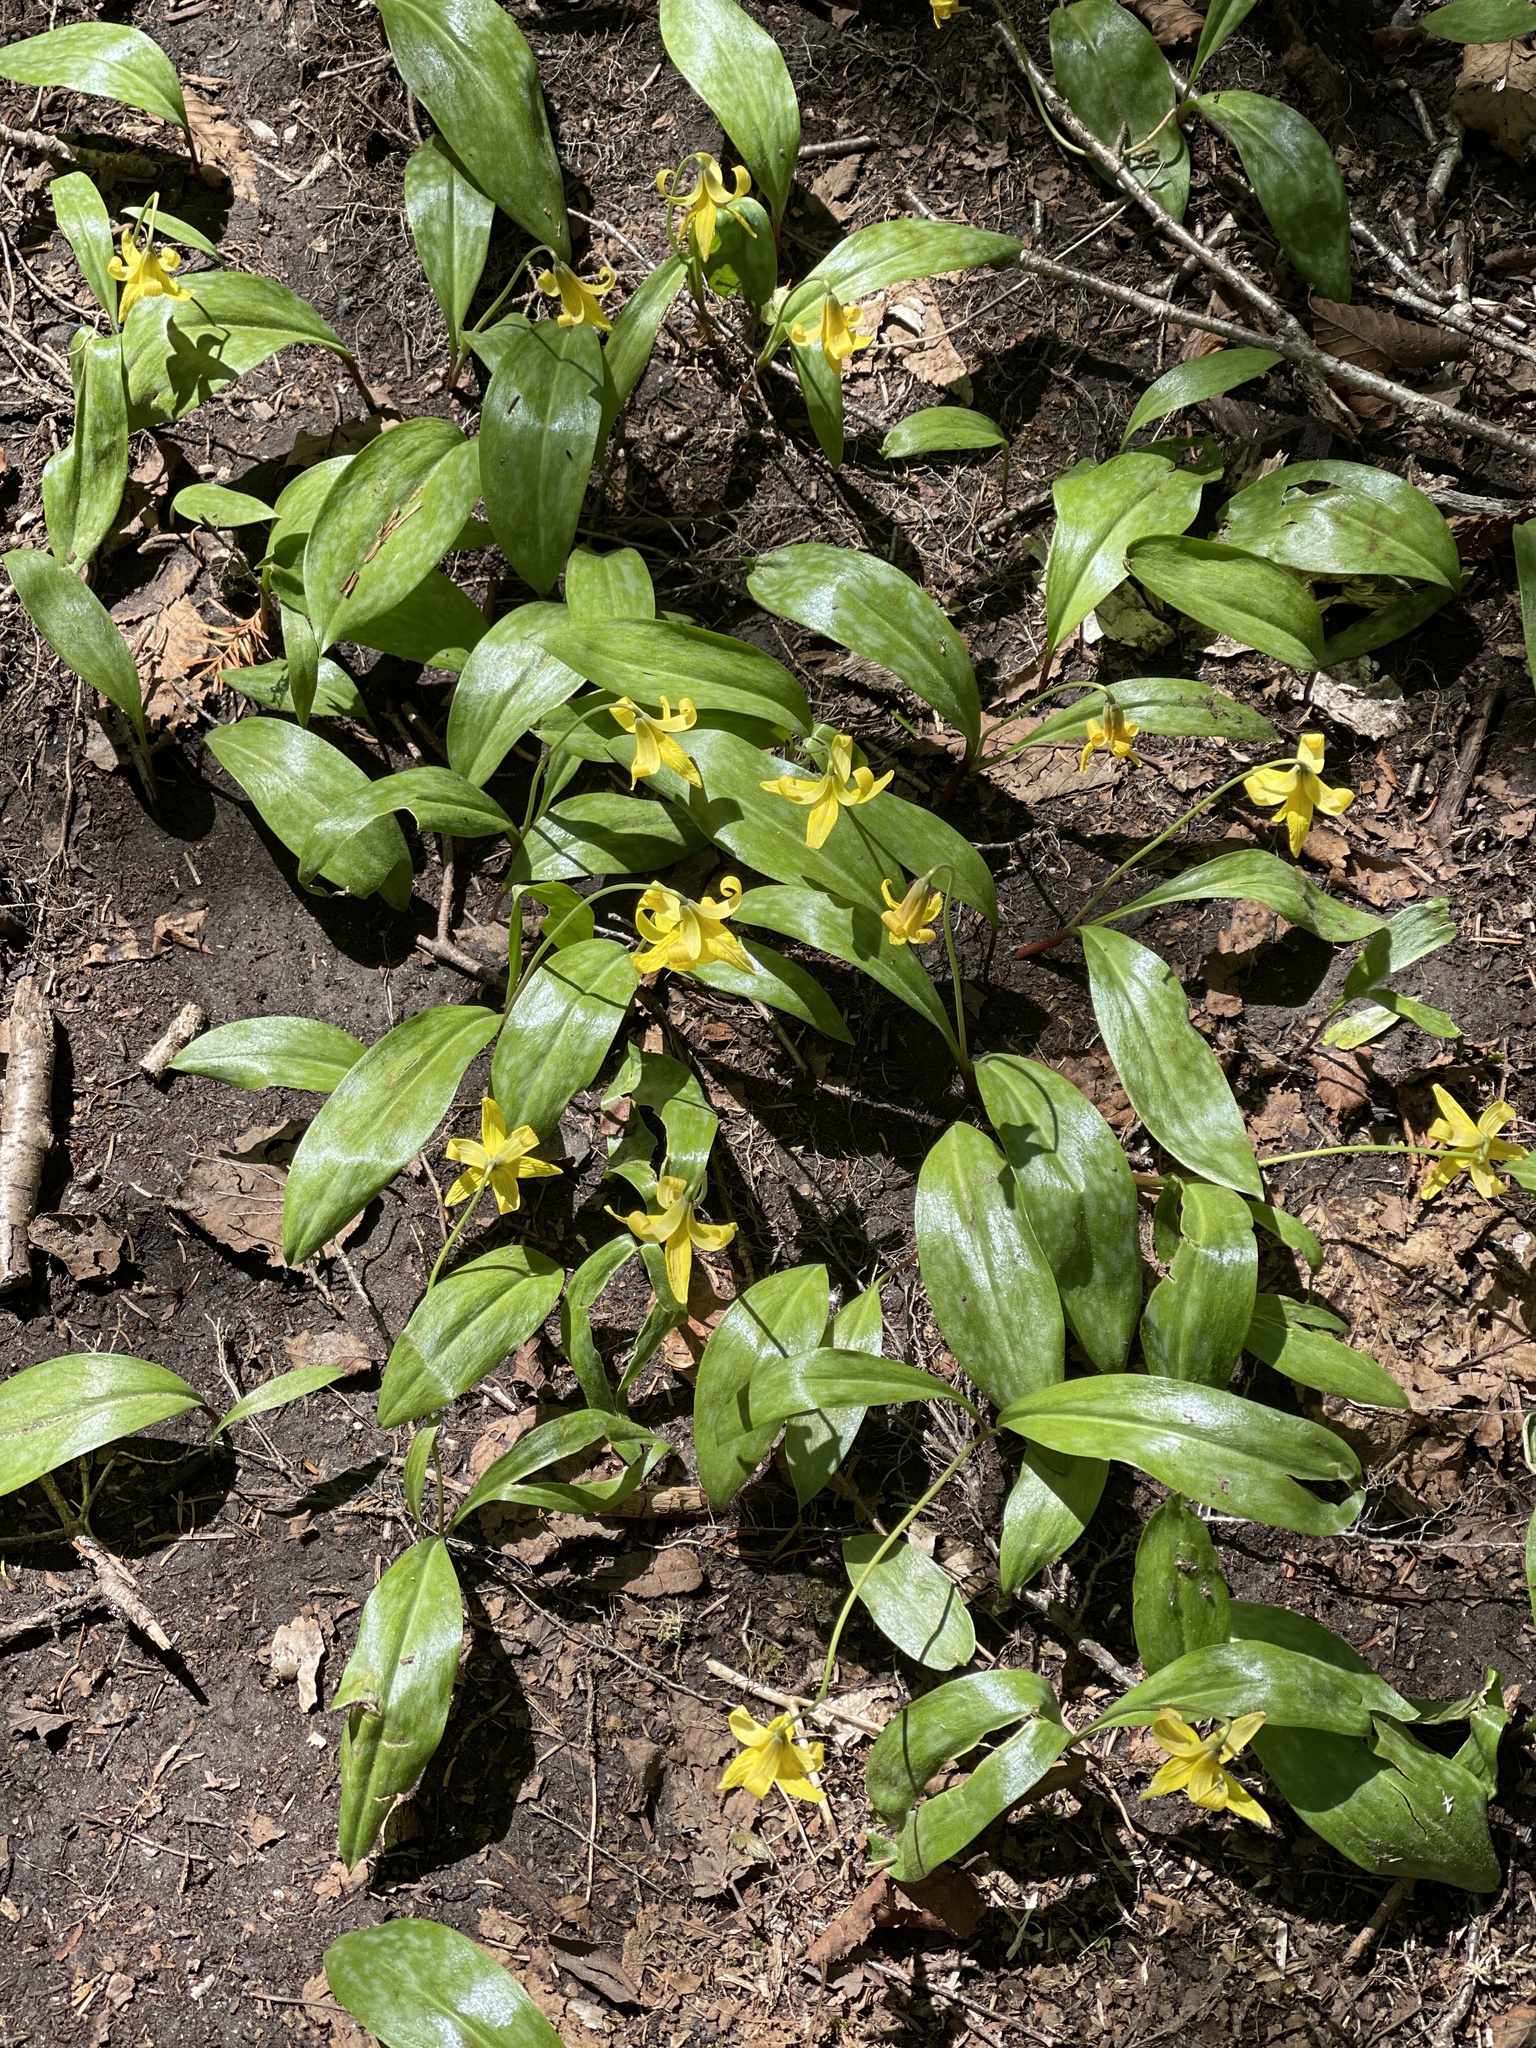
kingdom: Plantae
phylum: Tracheophyta
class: Liliopsida
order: Liliales
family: Liliaceae
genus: Erythronium
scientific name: Erythronium americanum
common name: Yellow adder's-tongue
